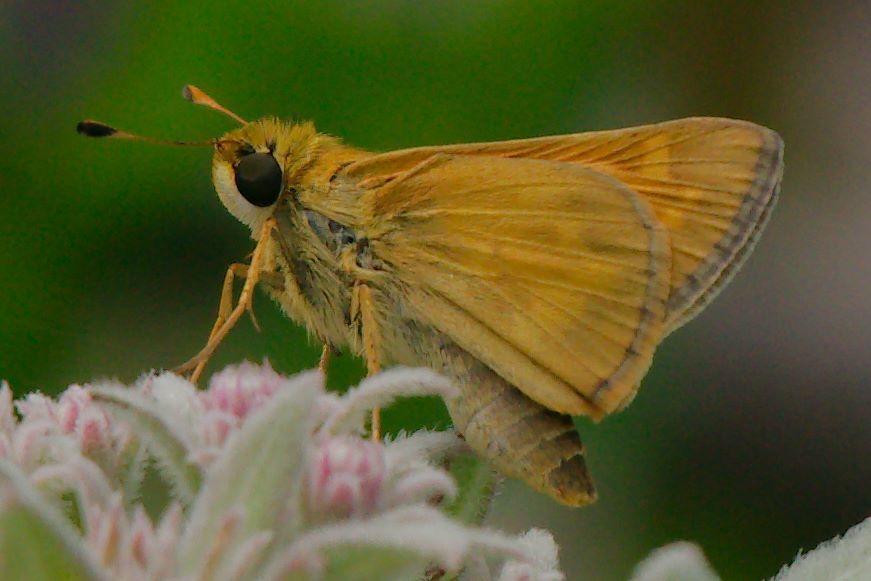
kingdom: Animalia
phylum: Arthropoda
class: Insecta
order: Lepidoptera
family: Hesperiidae
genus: Atalopedes
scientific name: Atalopedes
